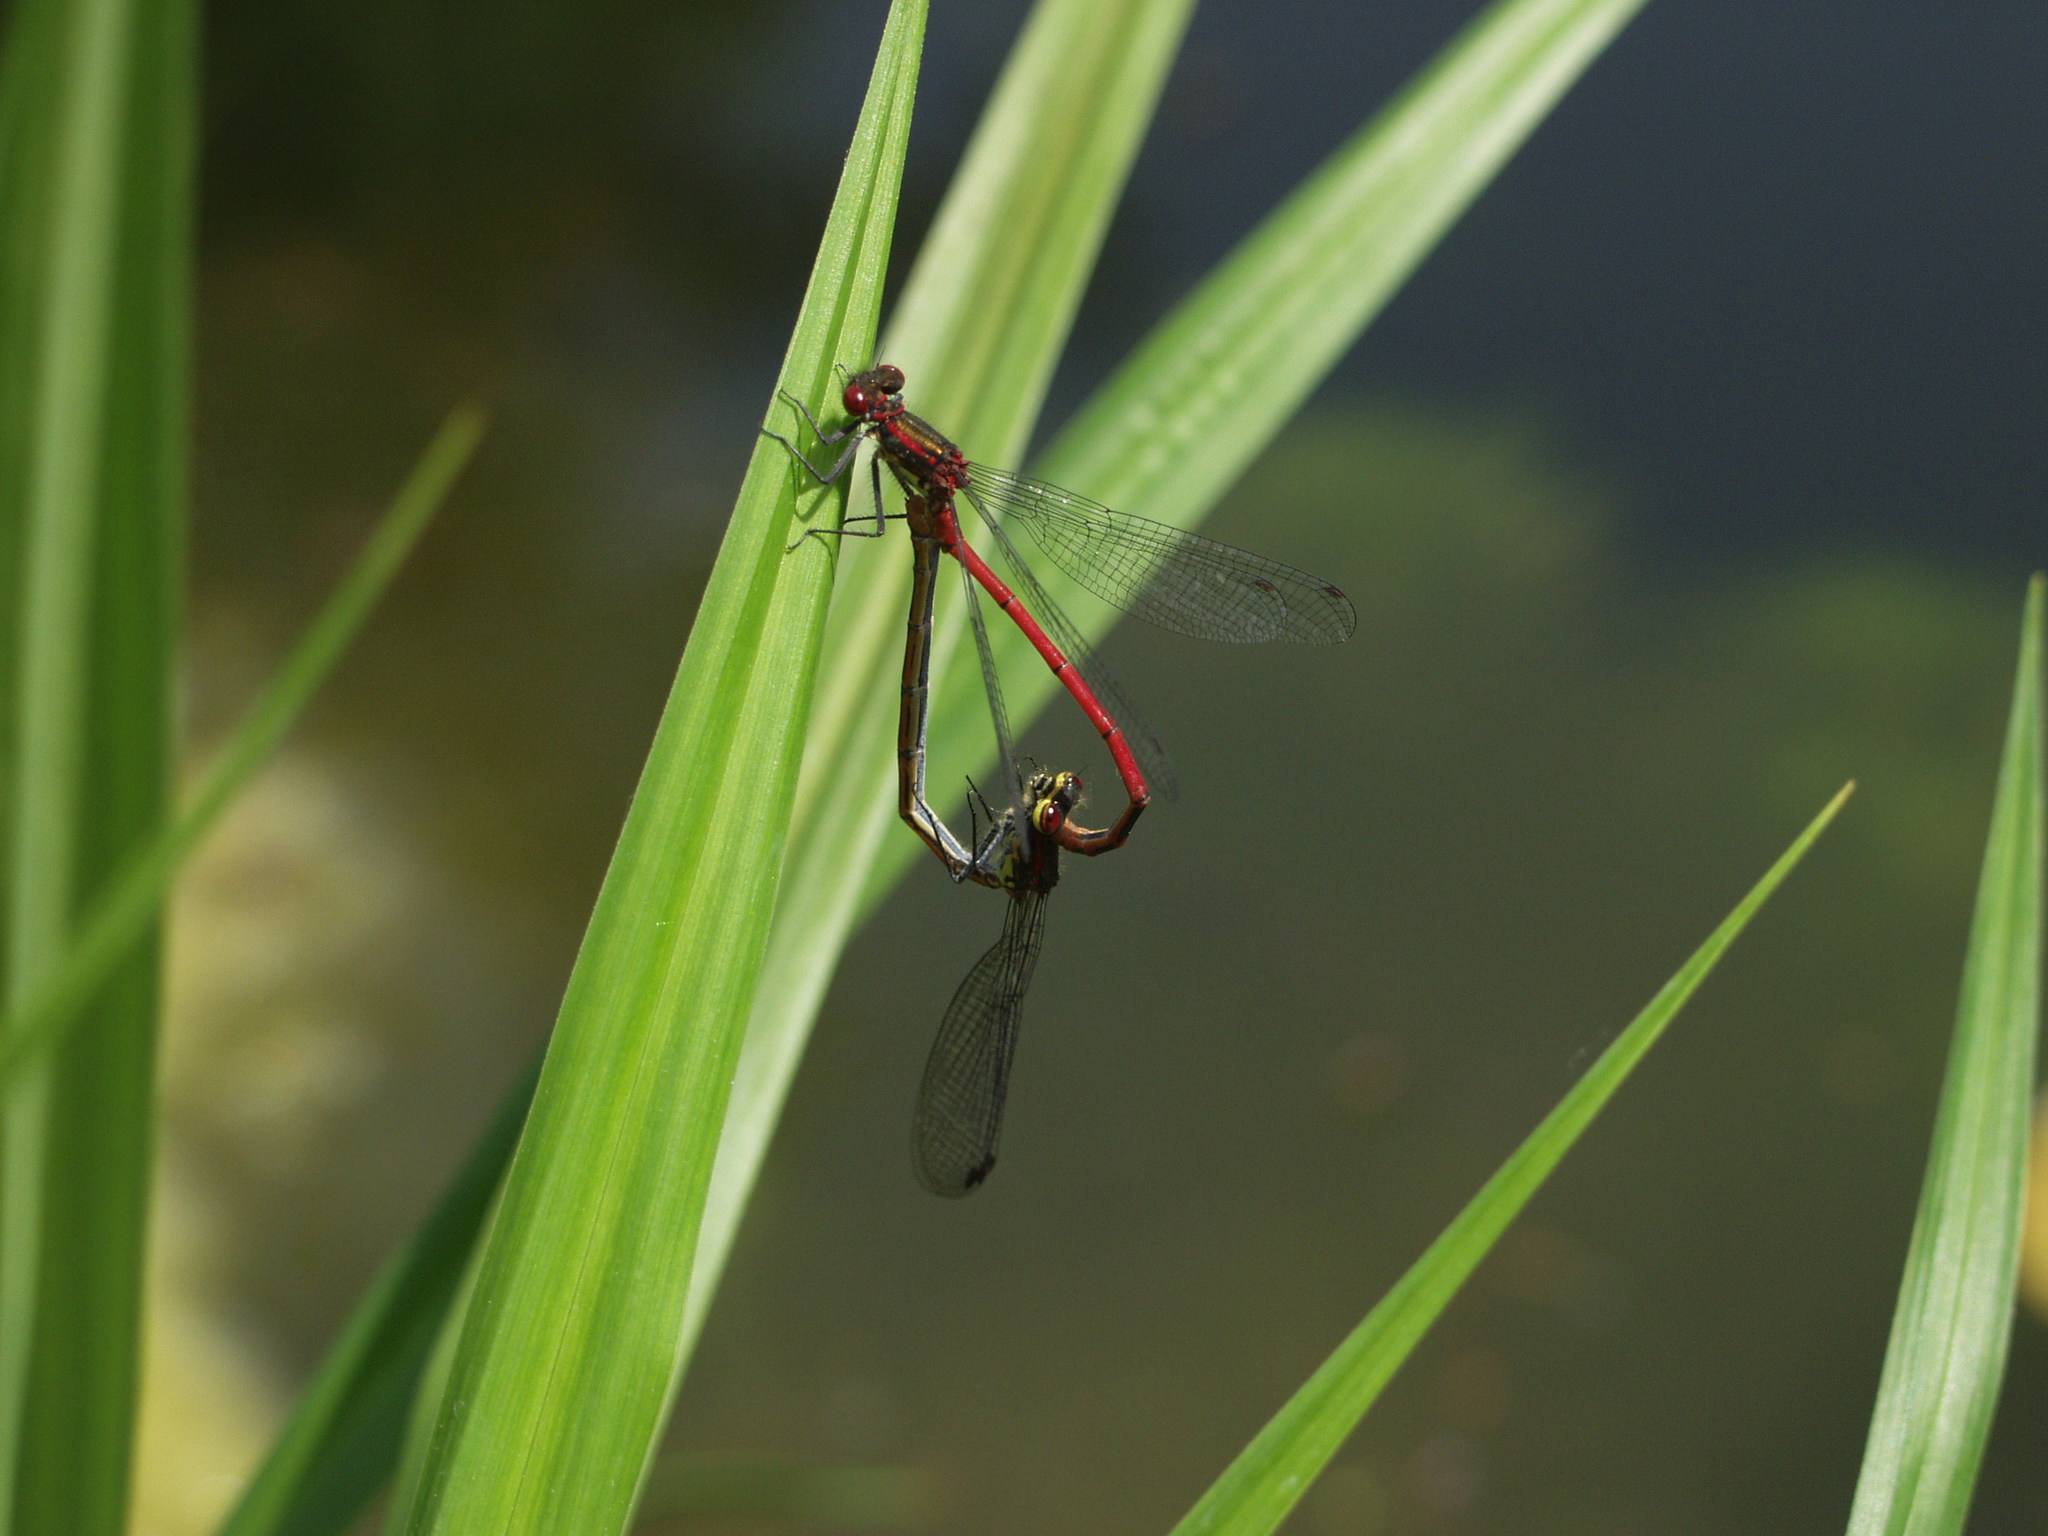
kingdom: Animalia
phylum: Arthropoda
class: Insecta
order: Odonata
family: Coenagrionidae
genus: Pyrrhosoma
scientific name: Pyrrhosoma nymphula
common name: Large red damsel
